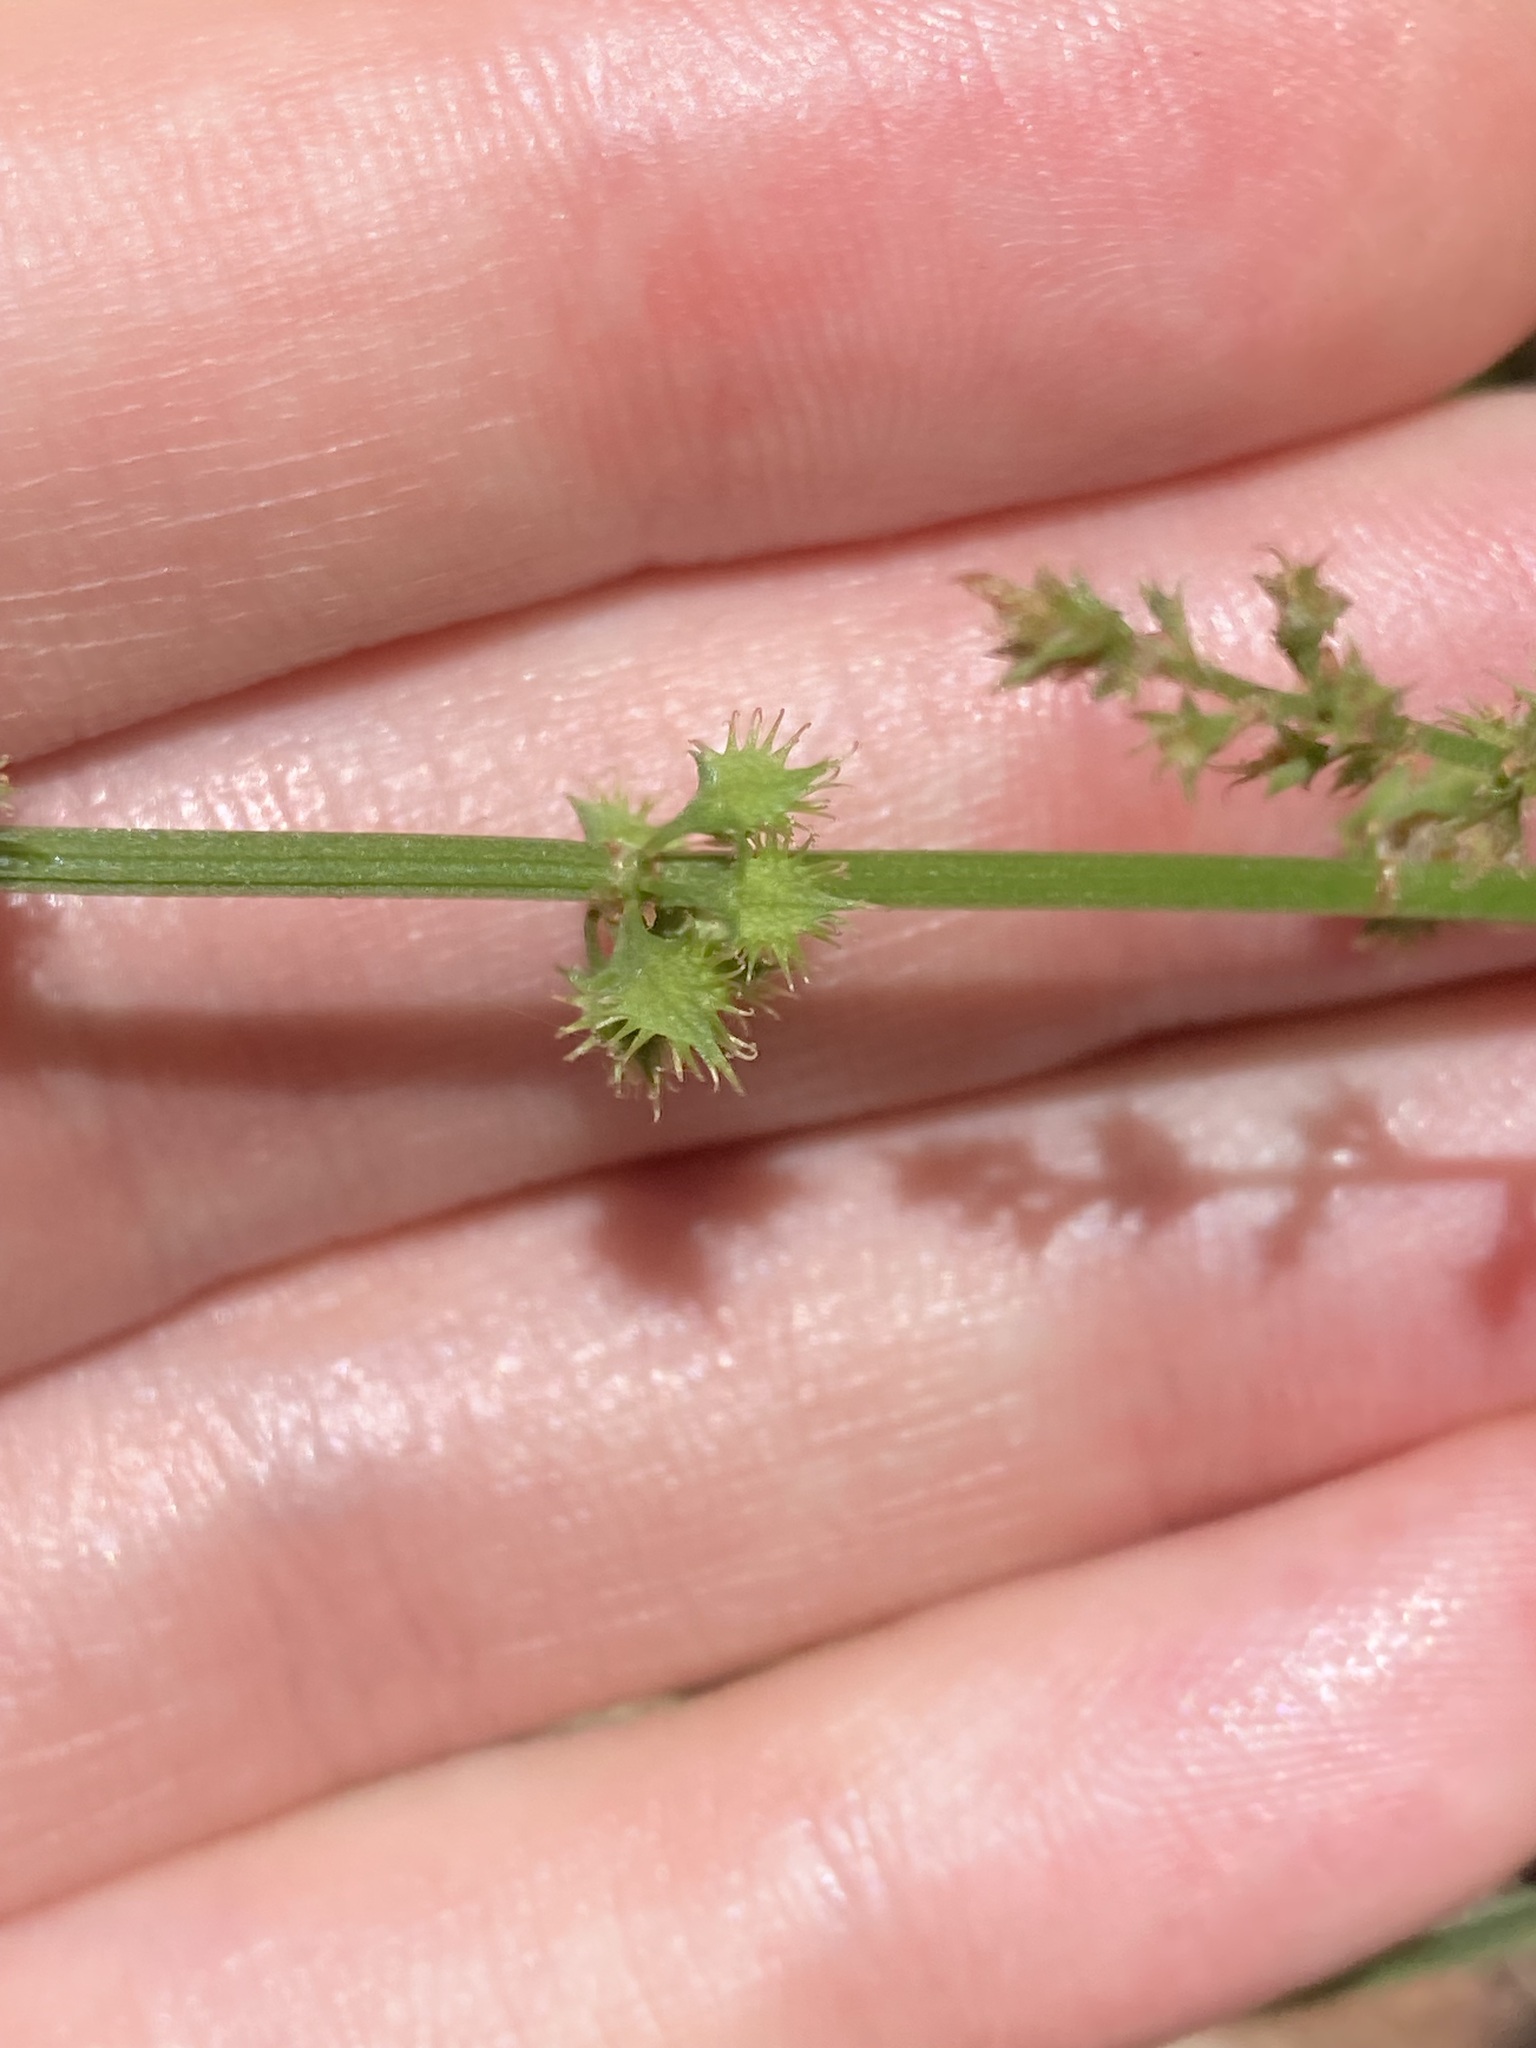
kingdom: Plantae
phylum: Tracheophyta
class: Magnoliopsida
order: Caryophyllales
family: Polygonaceae
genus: Rumex
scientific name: Rumex brownii
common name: Hooked dock
